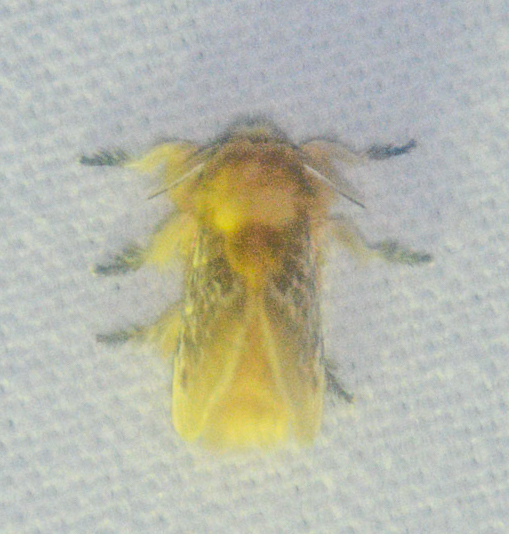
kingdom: Animalia
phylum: Arthropoda
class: Insecta
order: Lepidoptera
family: Megalopygidae
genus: Megalopyge
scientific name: Megalopyge opercularis
